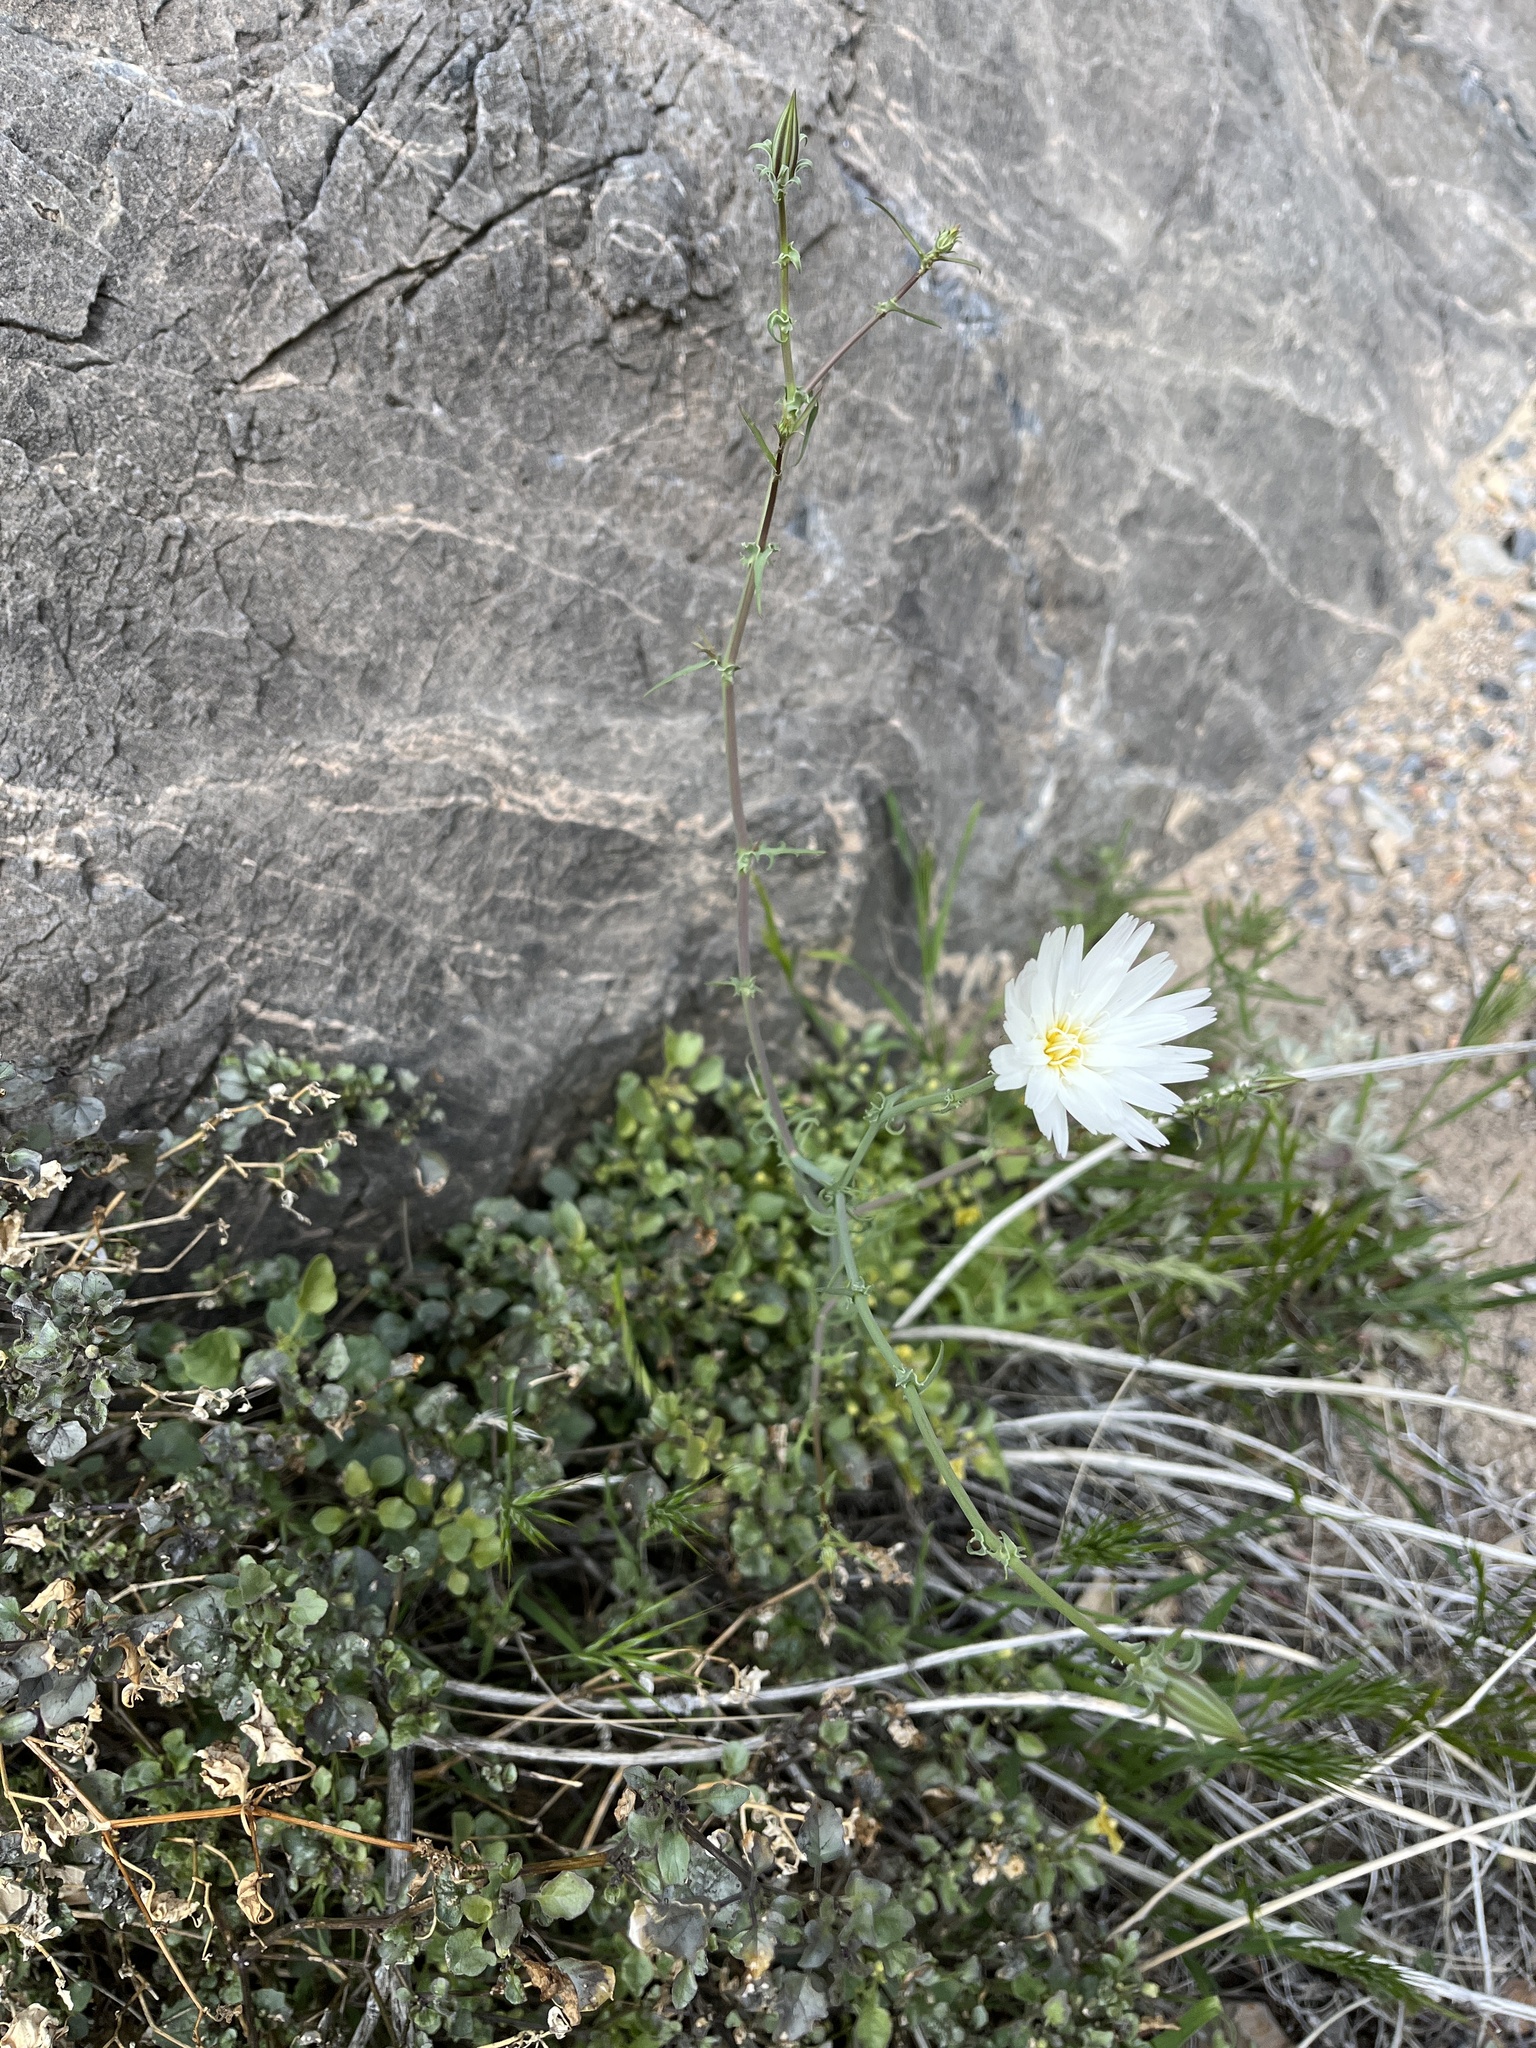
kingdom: Plantae
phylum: Tracheophyta
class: Magnoliopsida
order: Asterales
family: Asteraceae
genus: Rafinesquia
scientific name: Rafinesquia neomexicana
